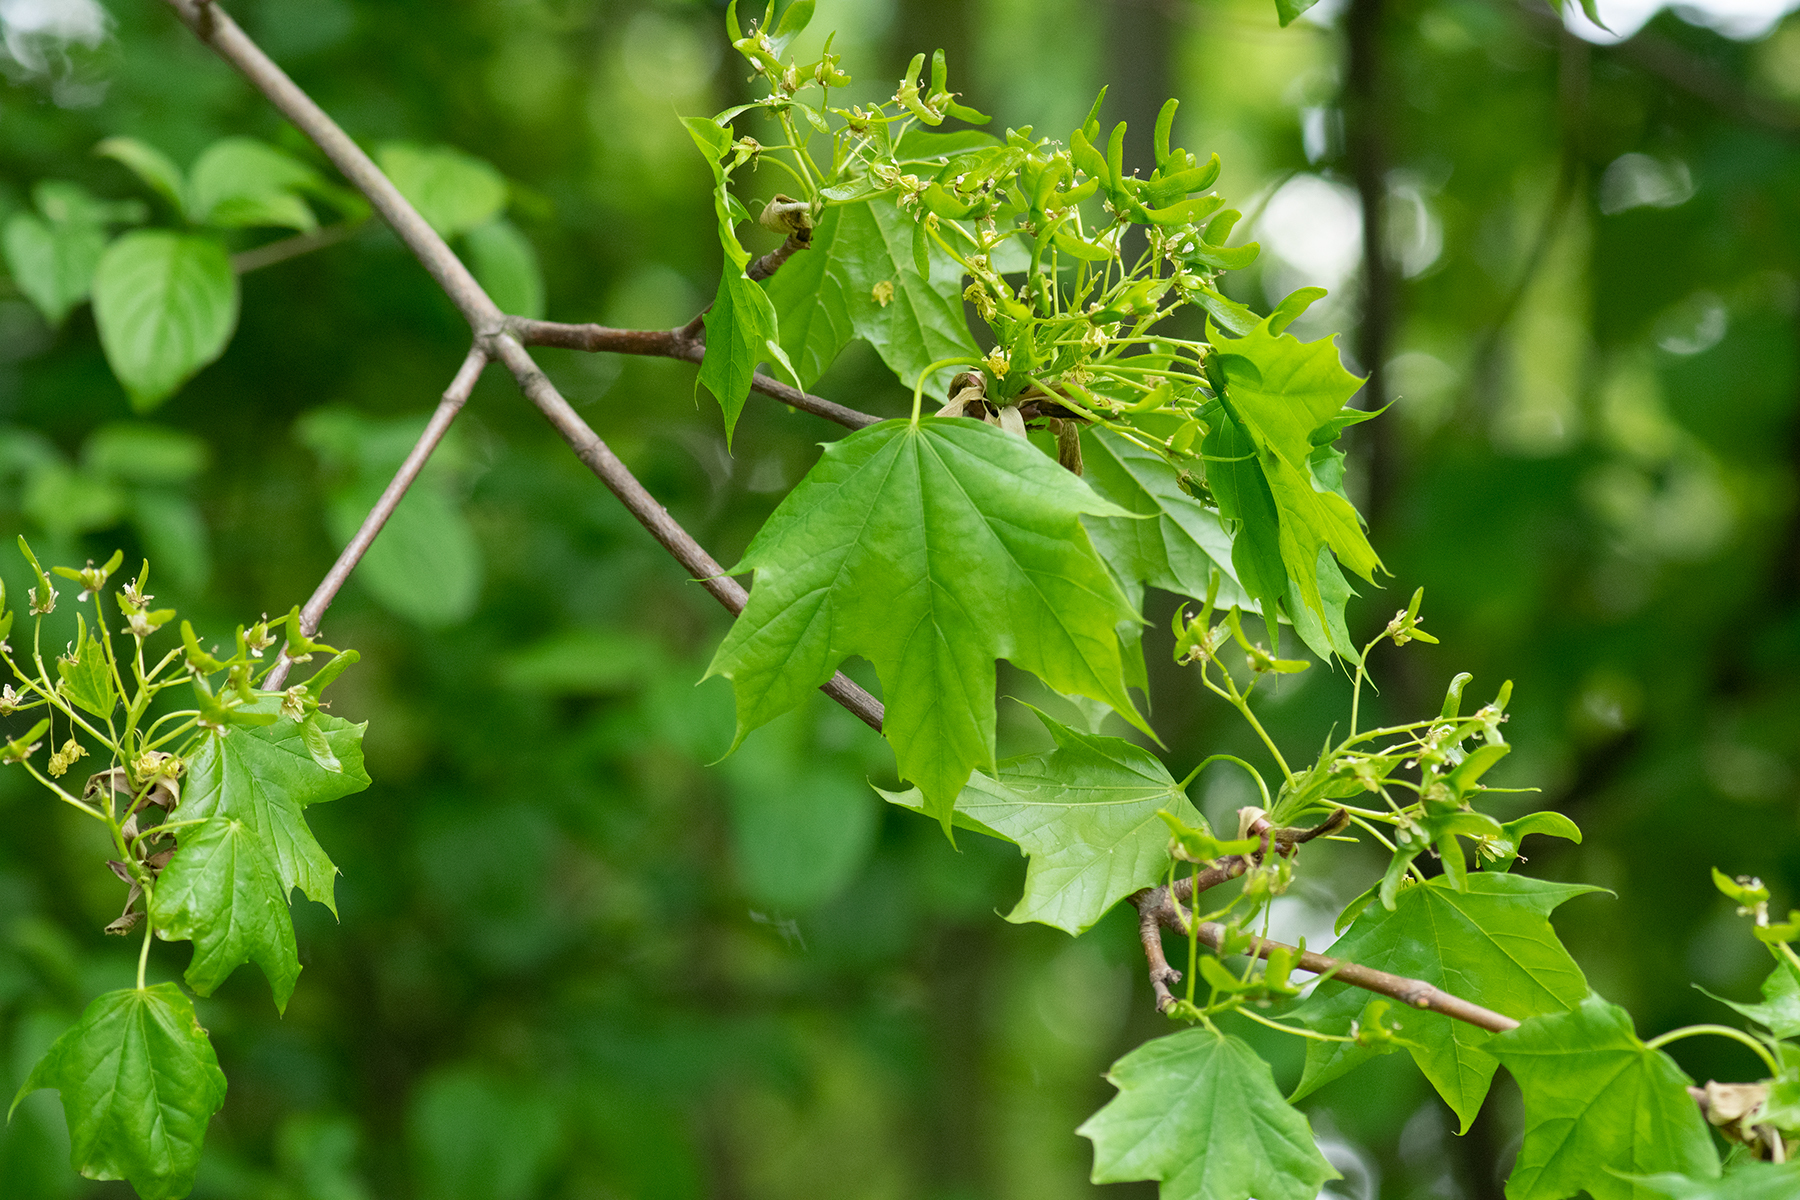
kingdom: Plantae
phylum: Tracheophyta
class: Magnoliopsida
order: Sapindales
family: Sapindaceae
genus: Acer
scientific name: Acer platanoides
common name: Norway maple
